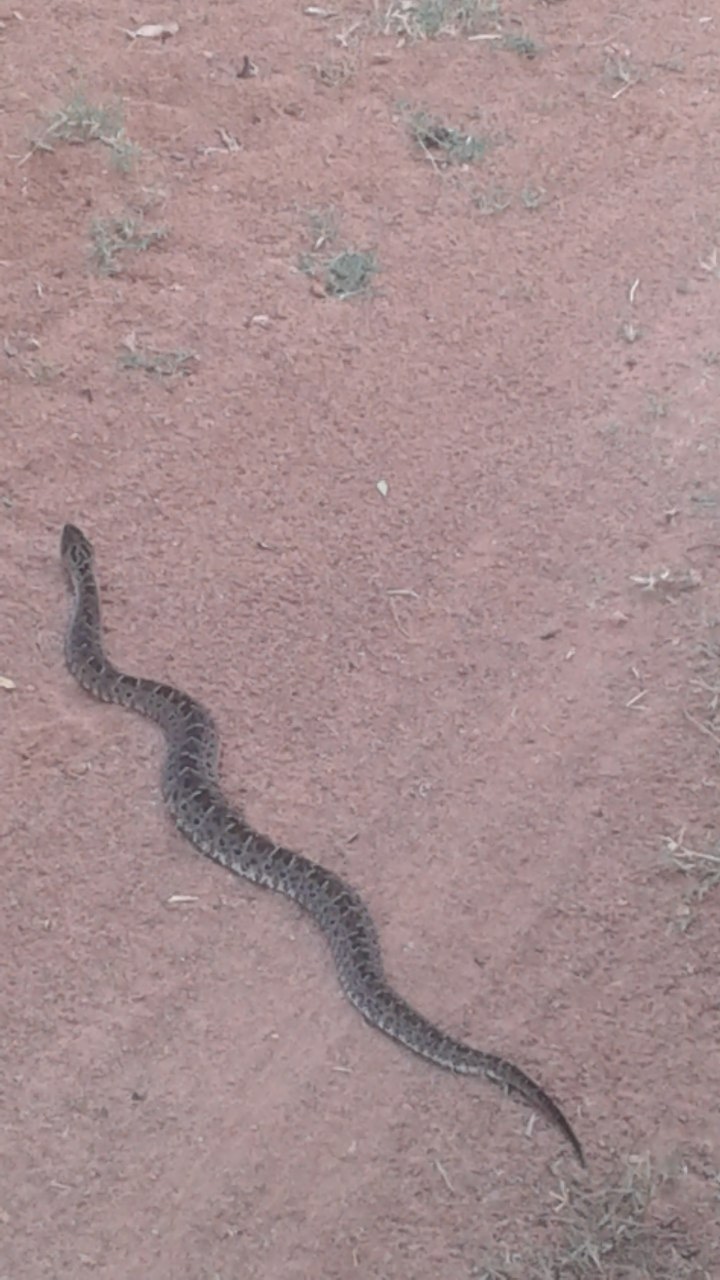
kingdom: Animalia
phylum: Chordata
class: Squamata
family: Viperidae
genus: Bothrops
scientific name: Bothrops pubescens
